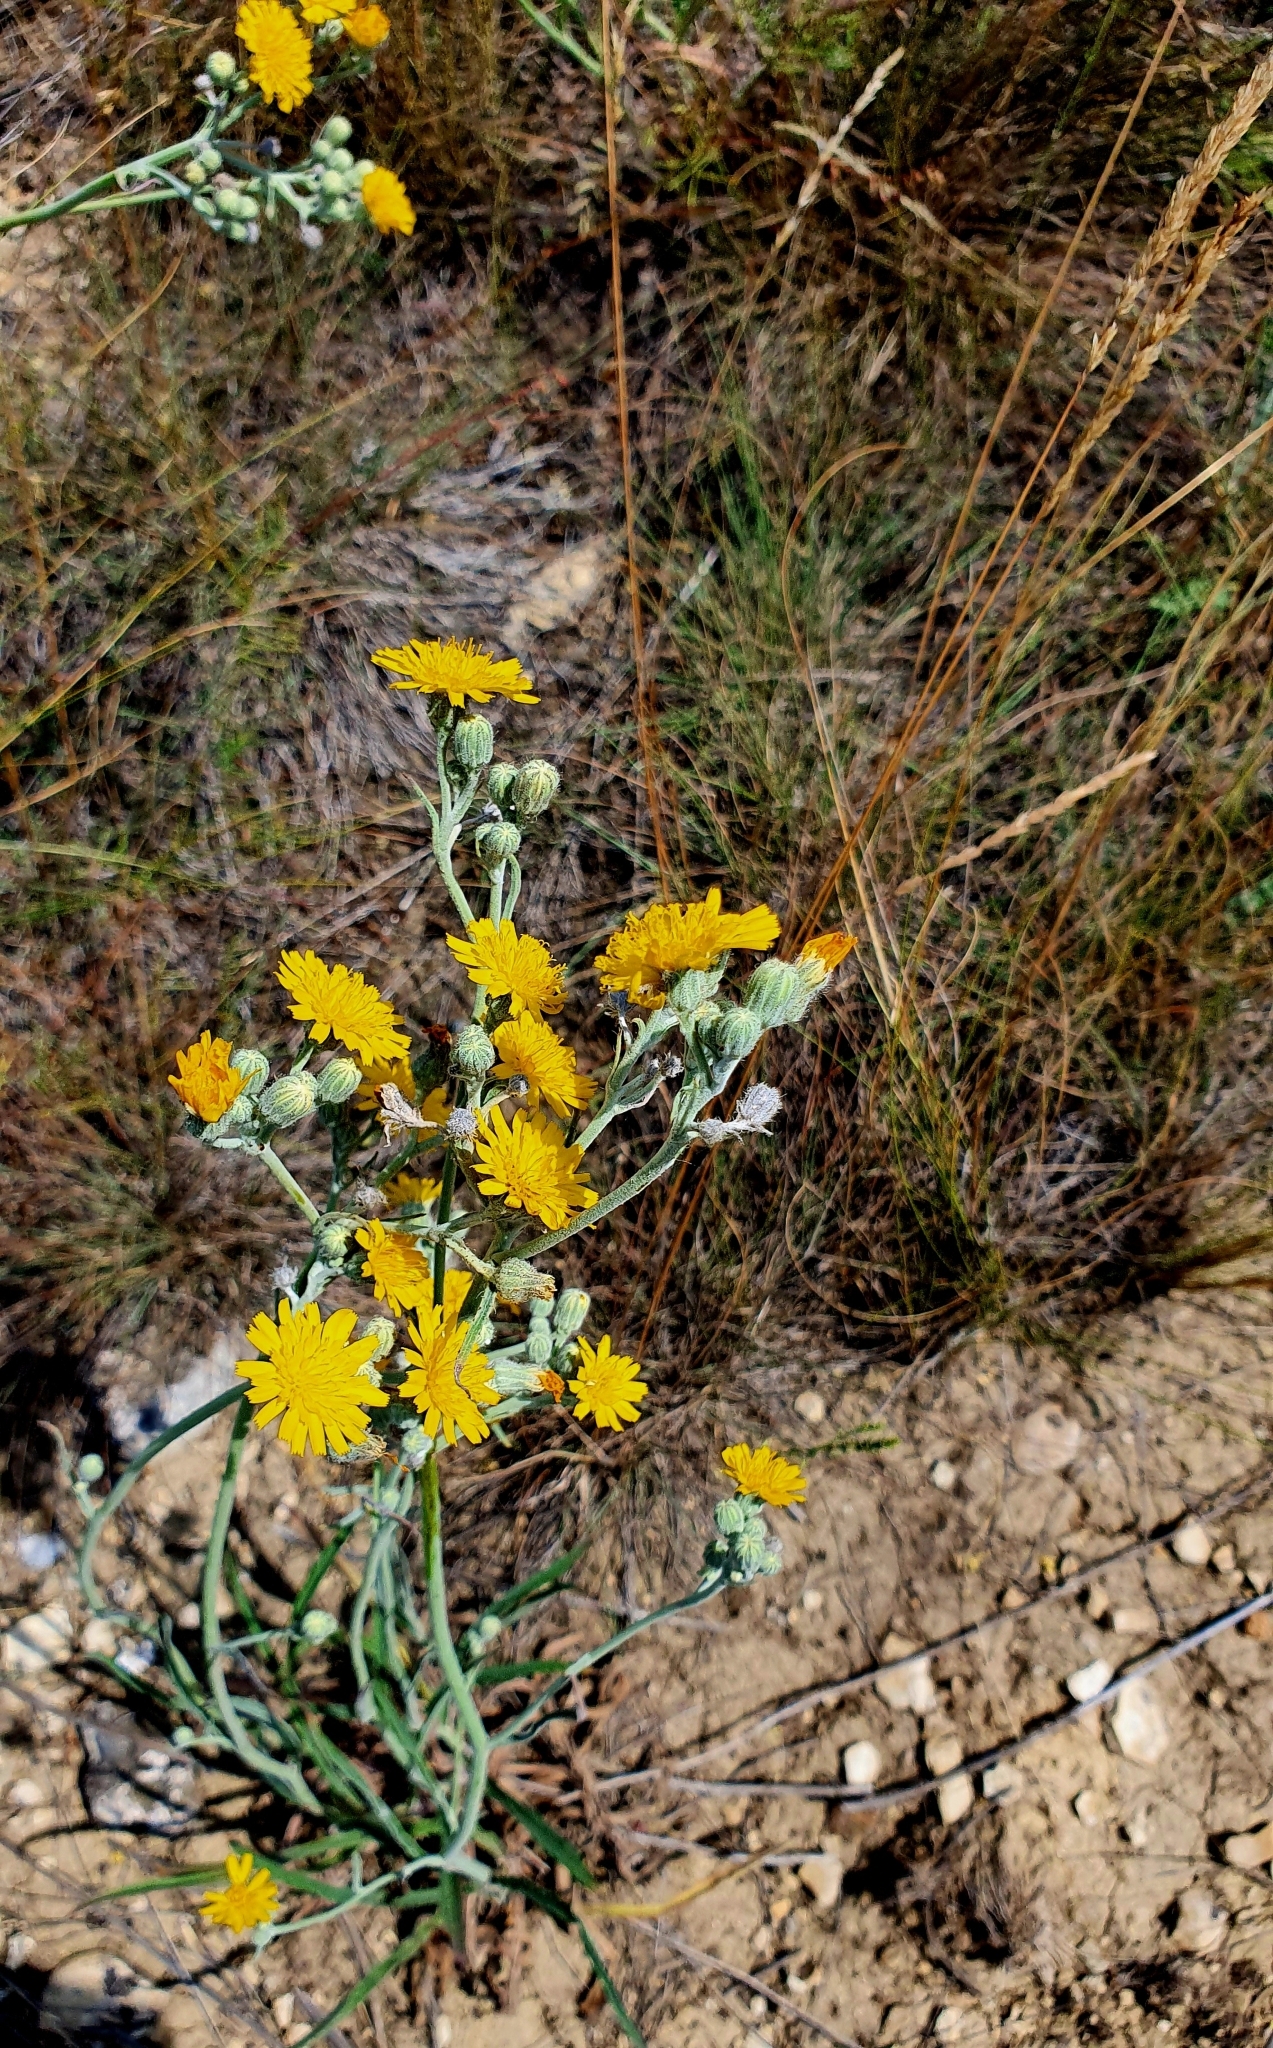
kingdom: Plantae
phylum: Tracheophyta
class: Magnoliopsida
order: Asterales
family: Asteraceae
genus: Pilosella
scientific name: Pilosella echioides
